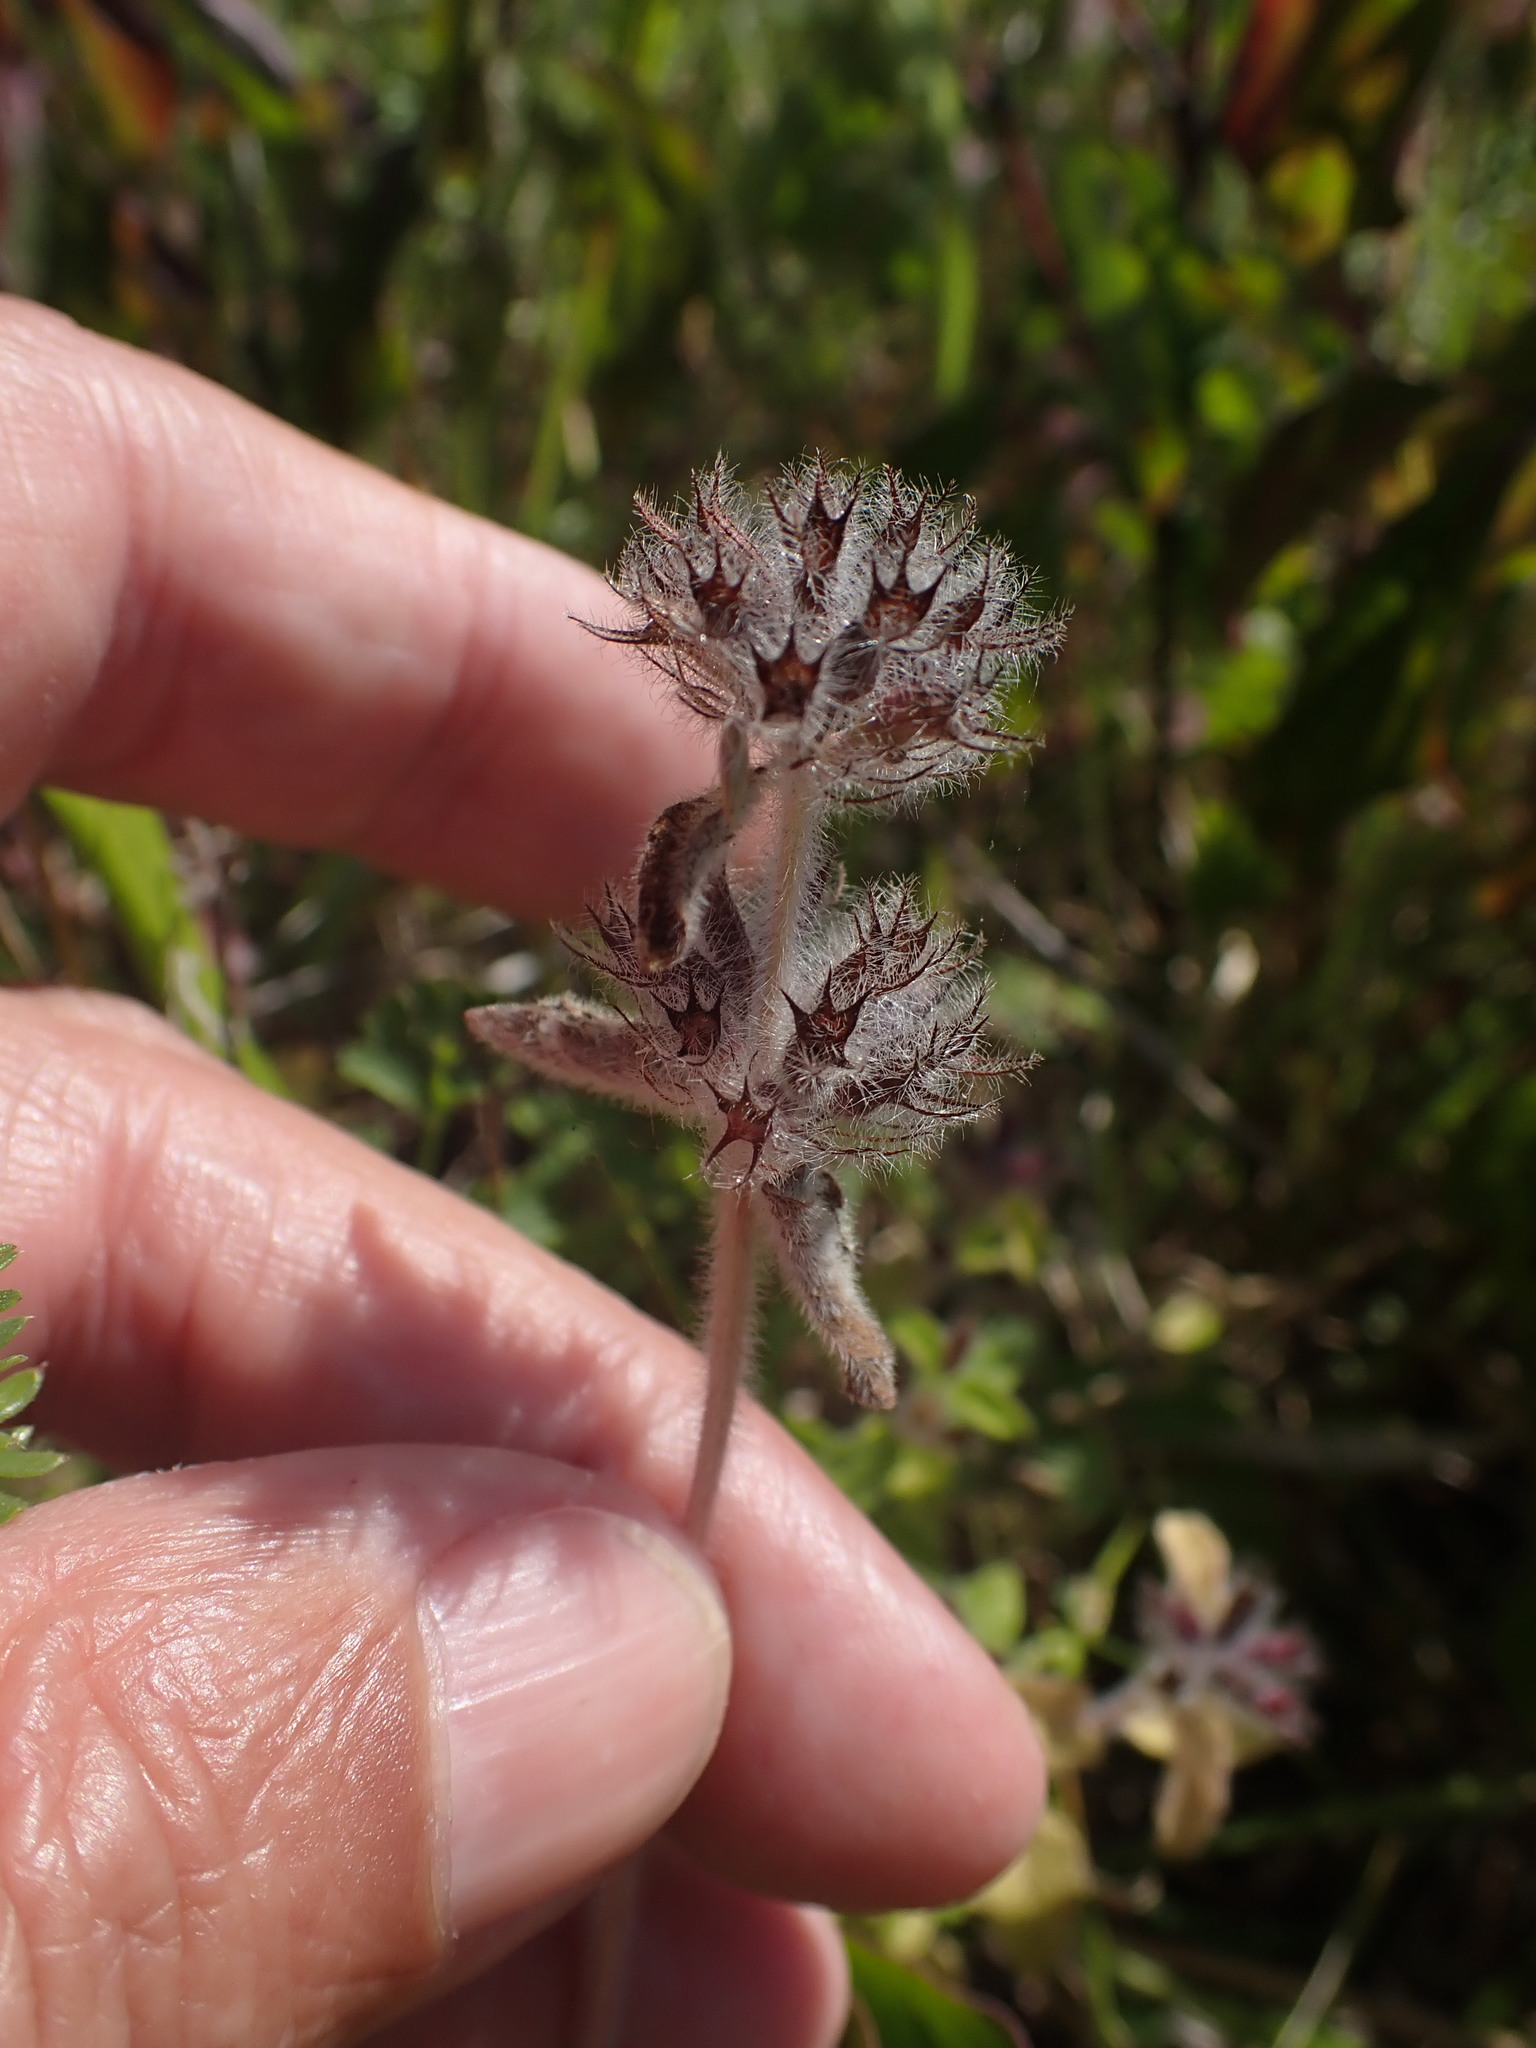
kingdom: Plantae
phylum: Tracheophyta
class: Magnoliopsida
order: Lamiales
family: Lamiaceae
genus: Clinopodium
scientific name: Clinopodium vulgare
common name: Wild basil
